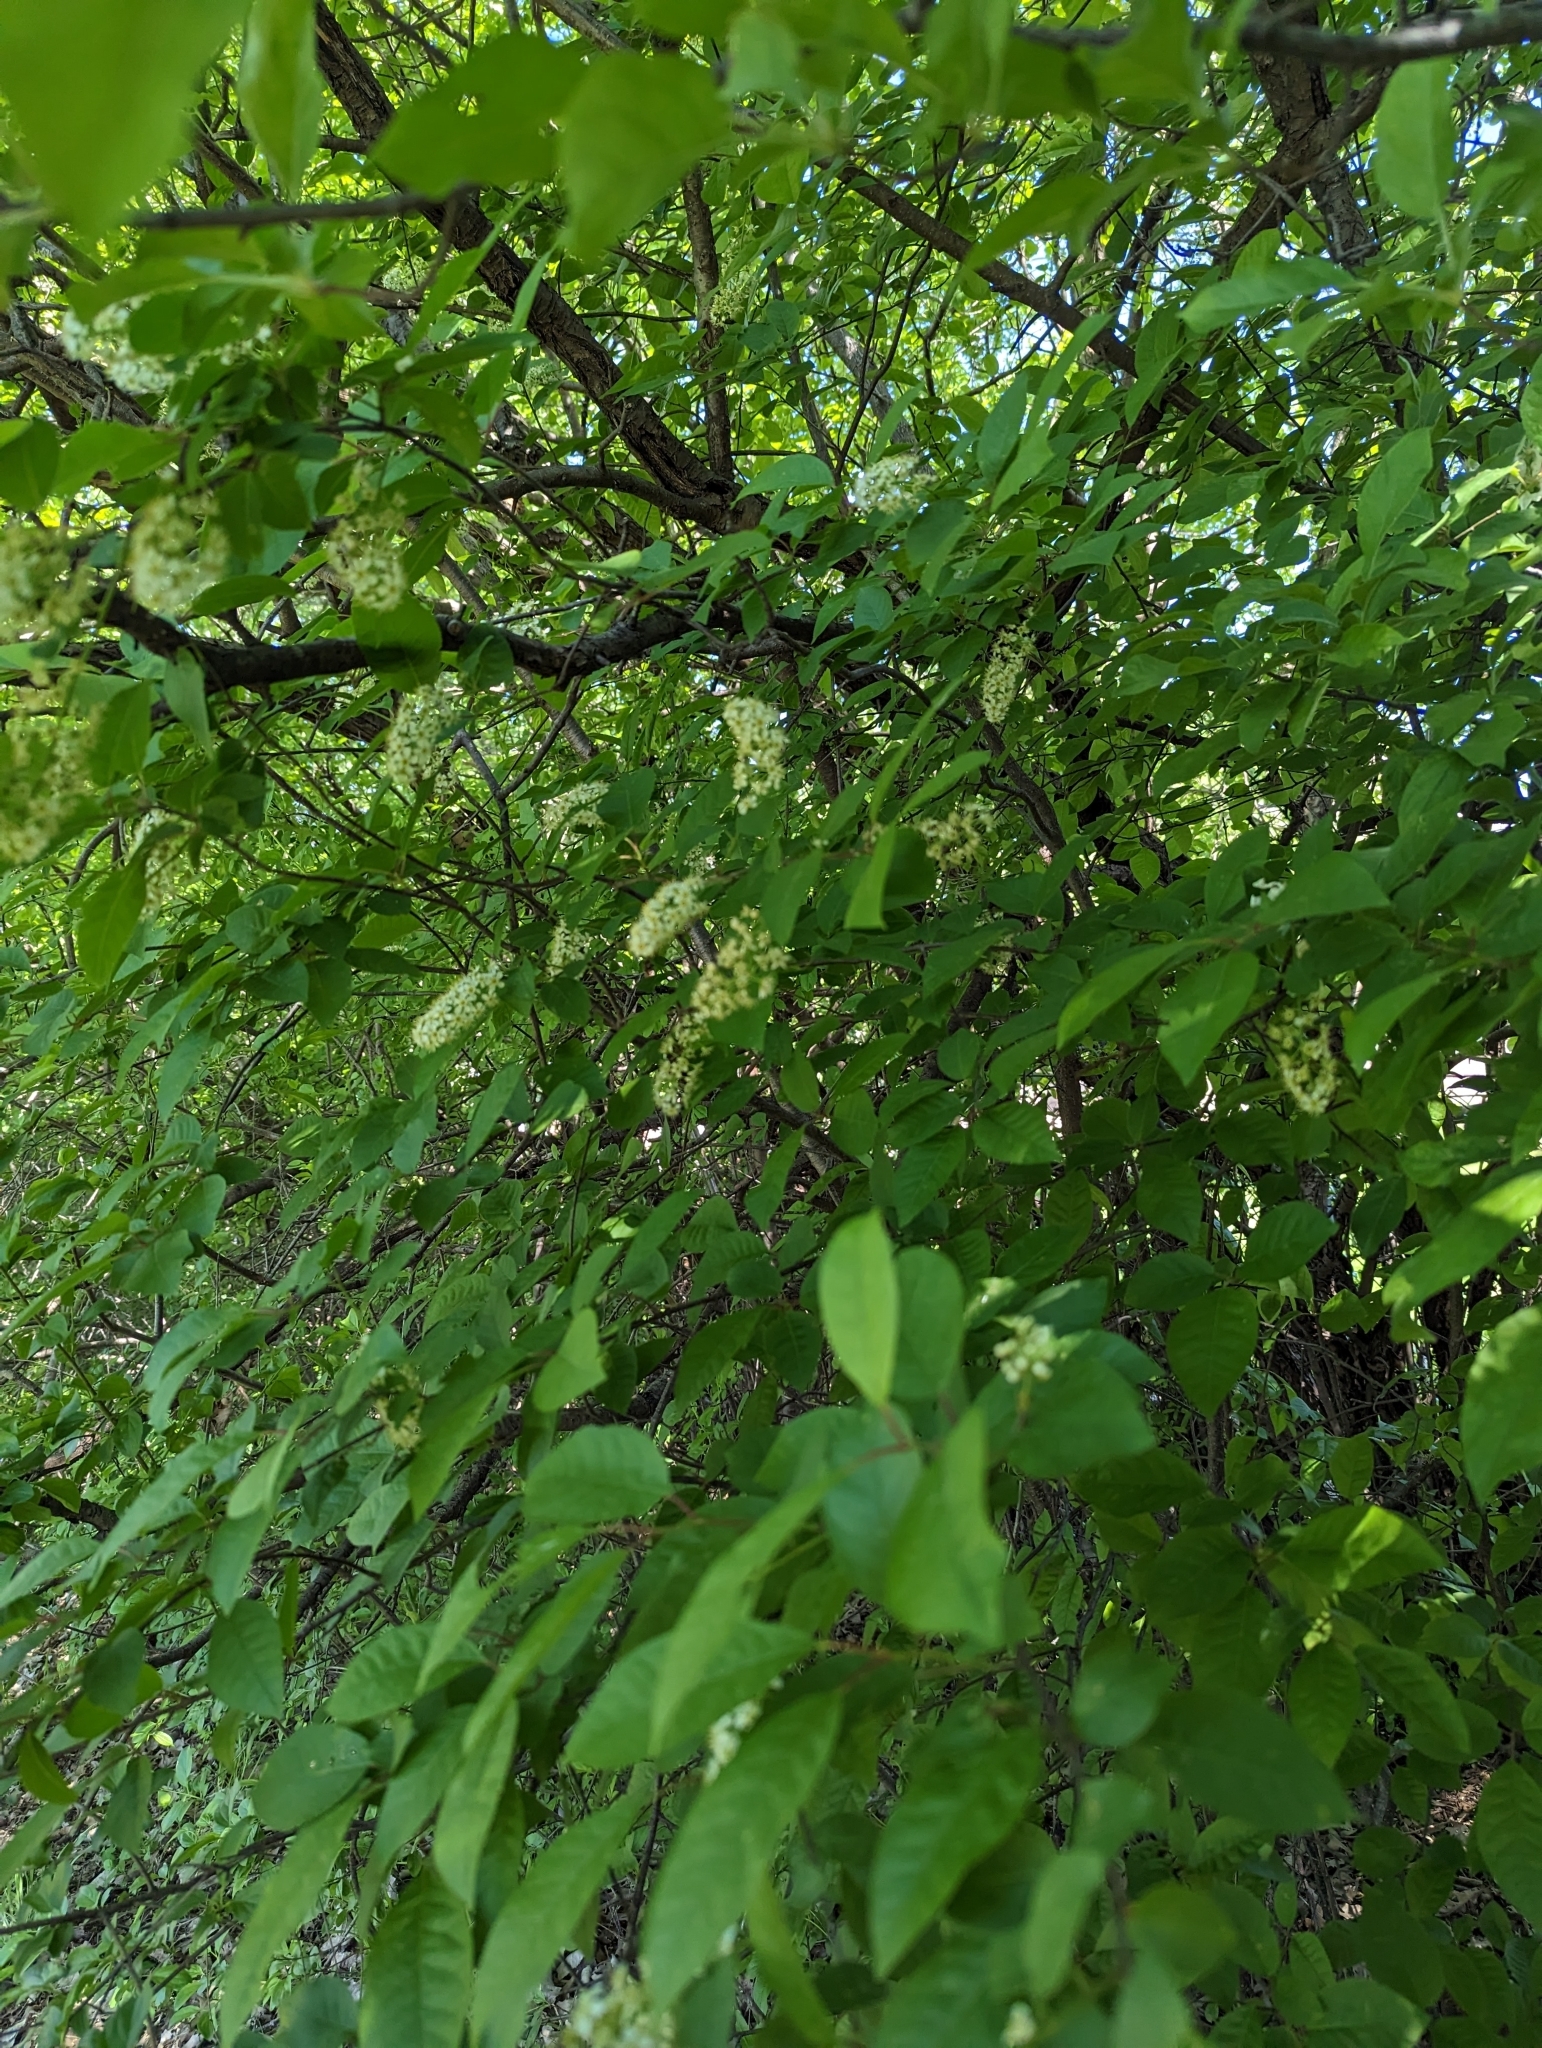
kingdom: Plantae
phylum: Tracheophyta
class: Magnoliopsida
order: Rosales
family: Rosaceae
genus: Prunus
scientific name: Prunus virginiana
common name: Chokecherry
